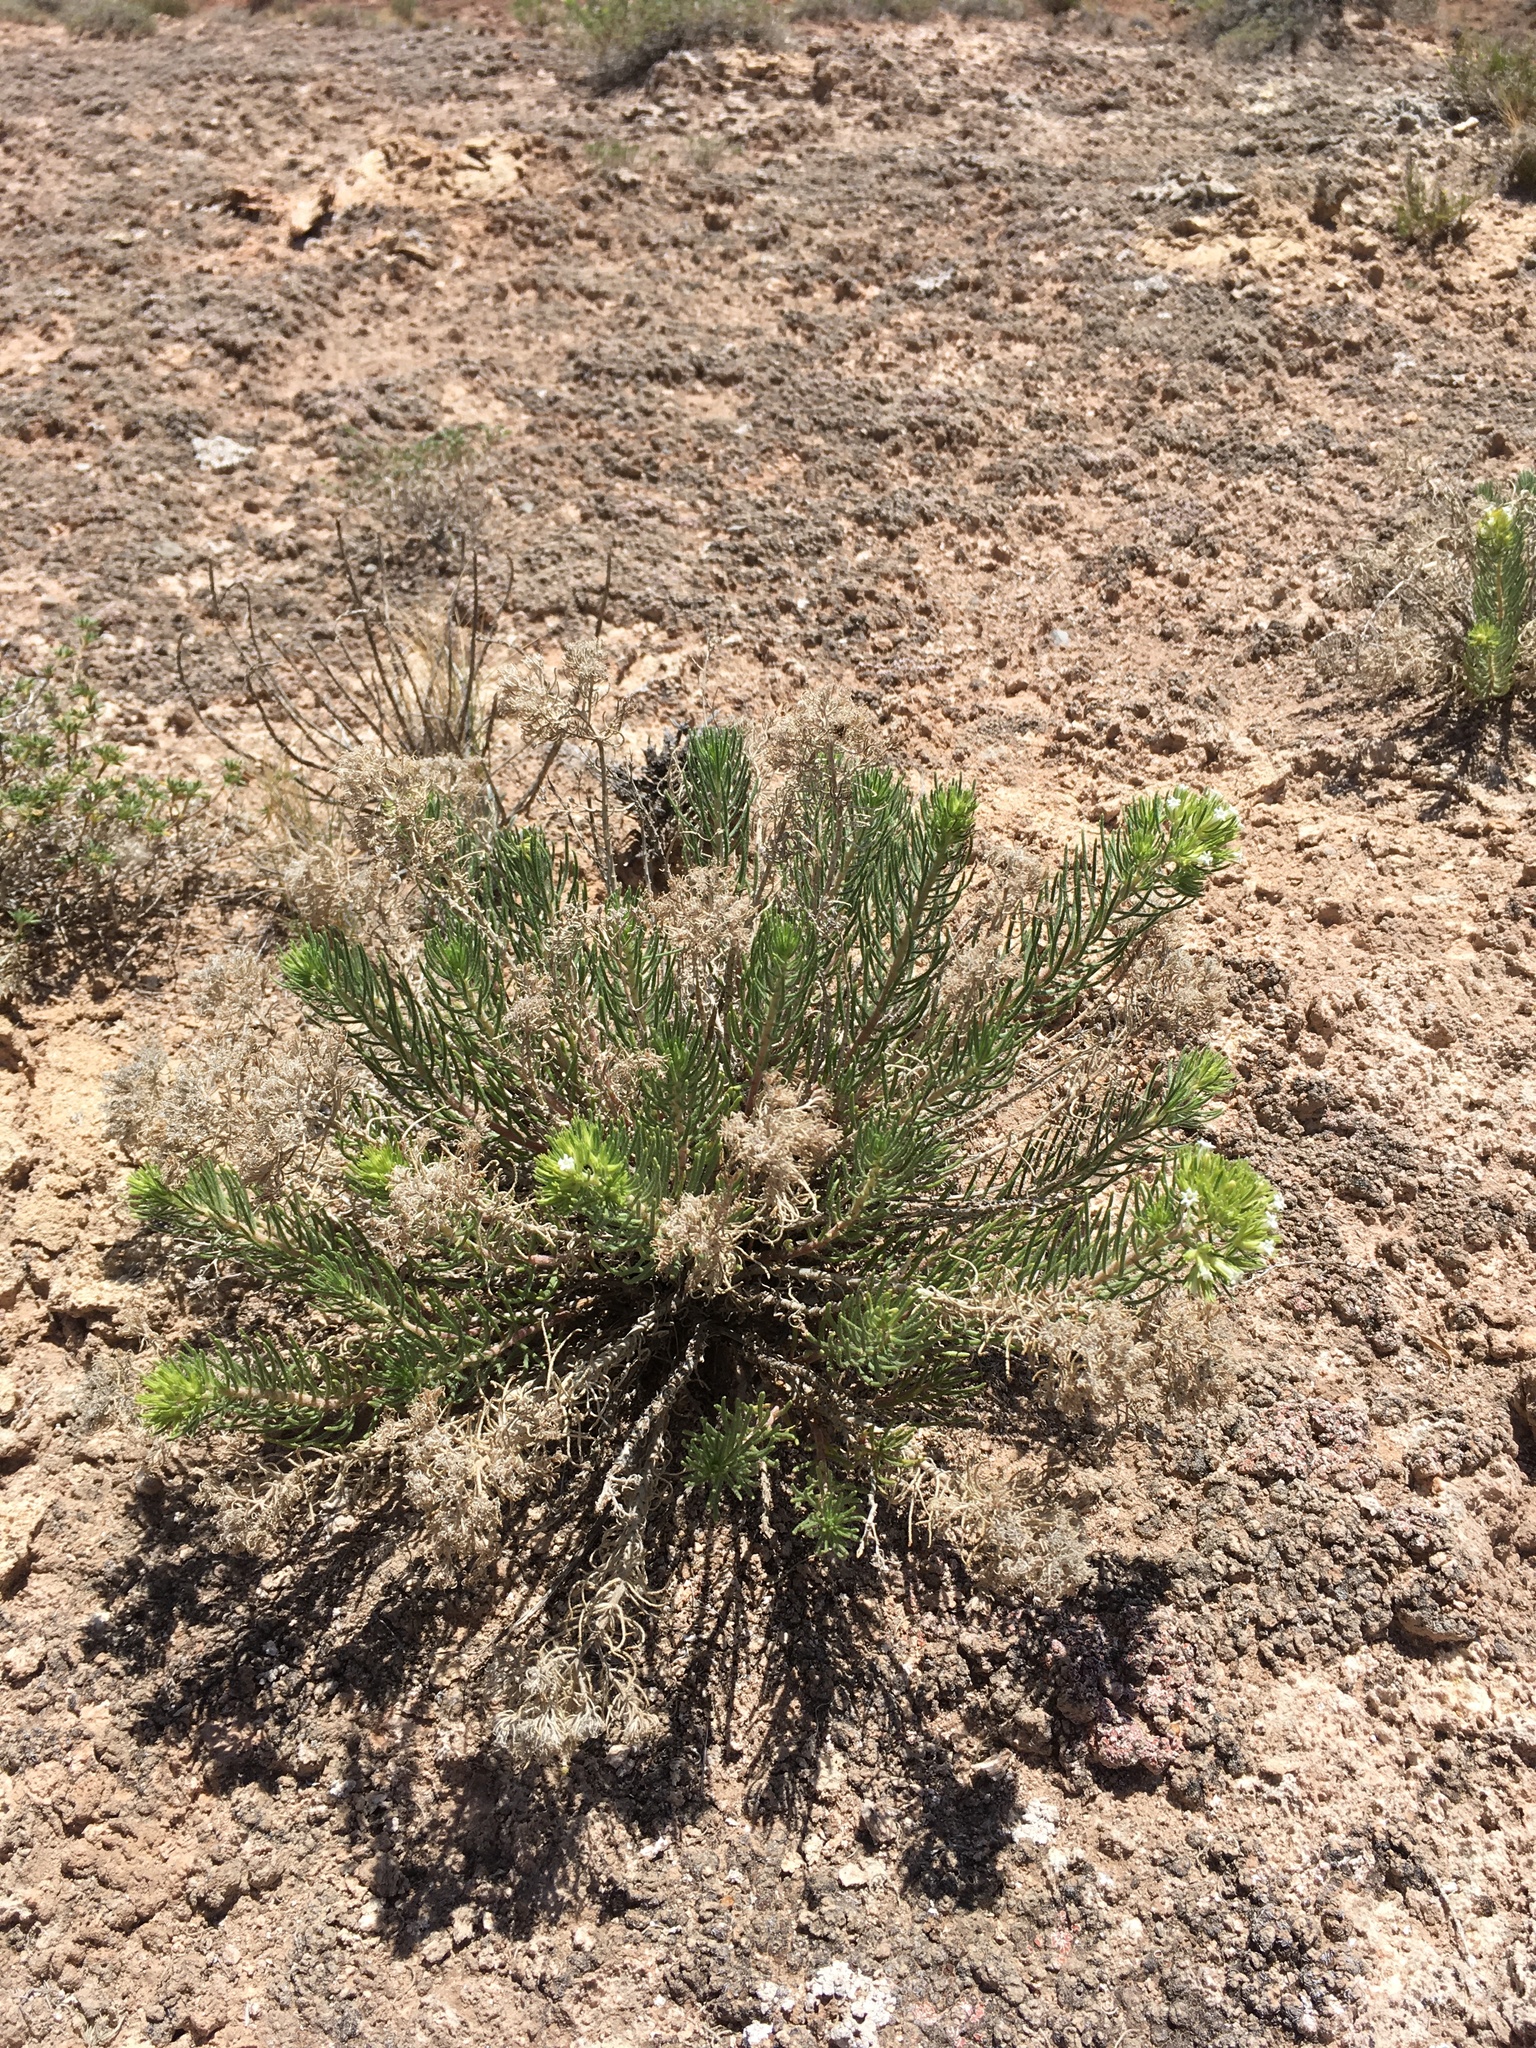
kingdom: Plantae
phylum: Tracheophyta
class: Magnoliopsida
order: Boraginales
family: Namaceae
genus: Andropus
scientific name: Andropus carnosus
